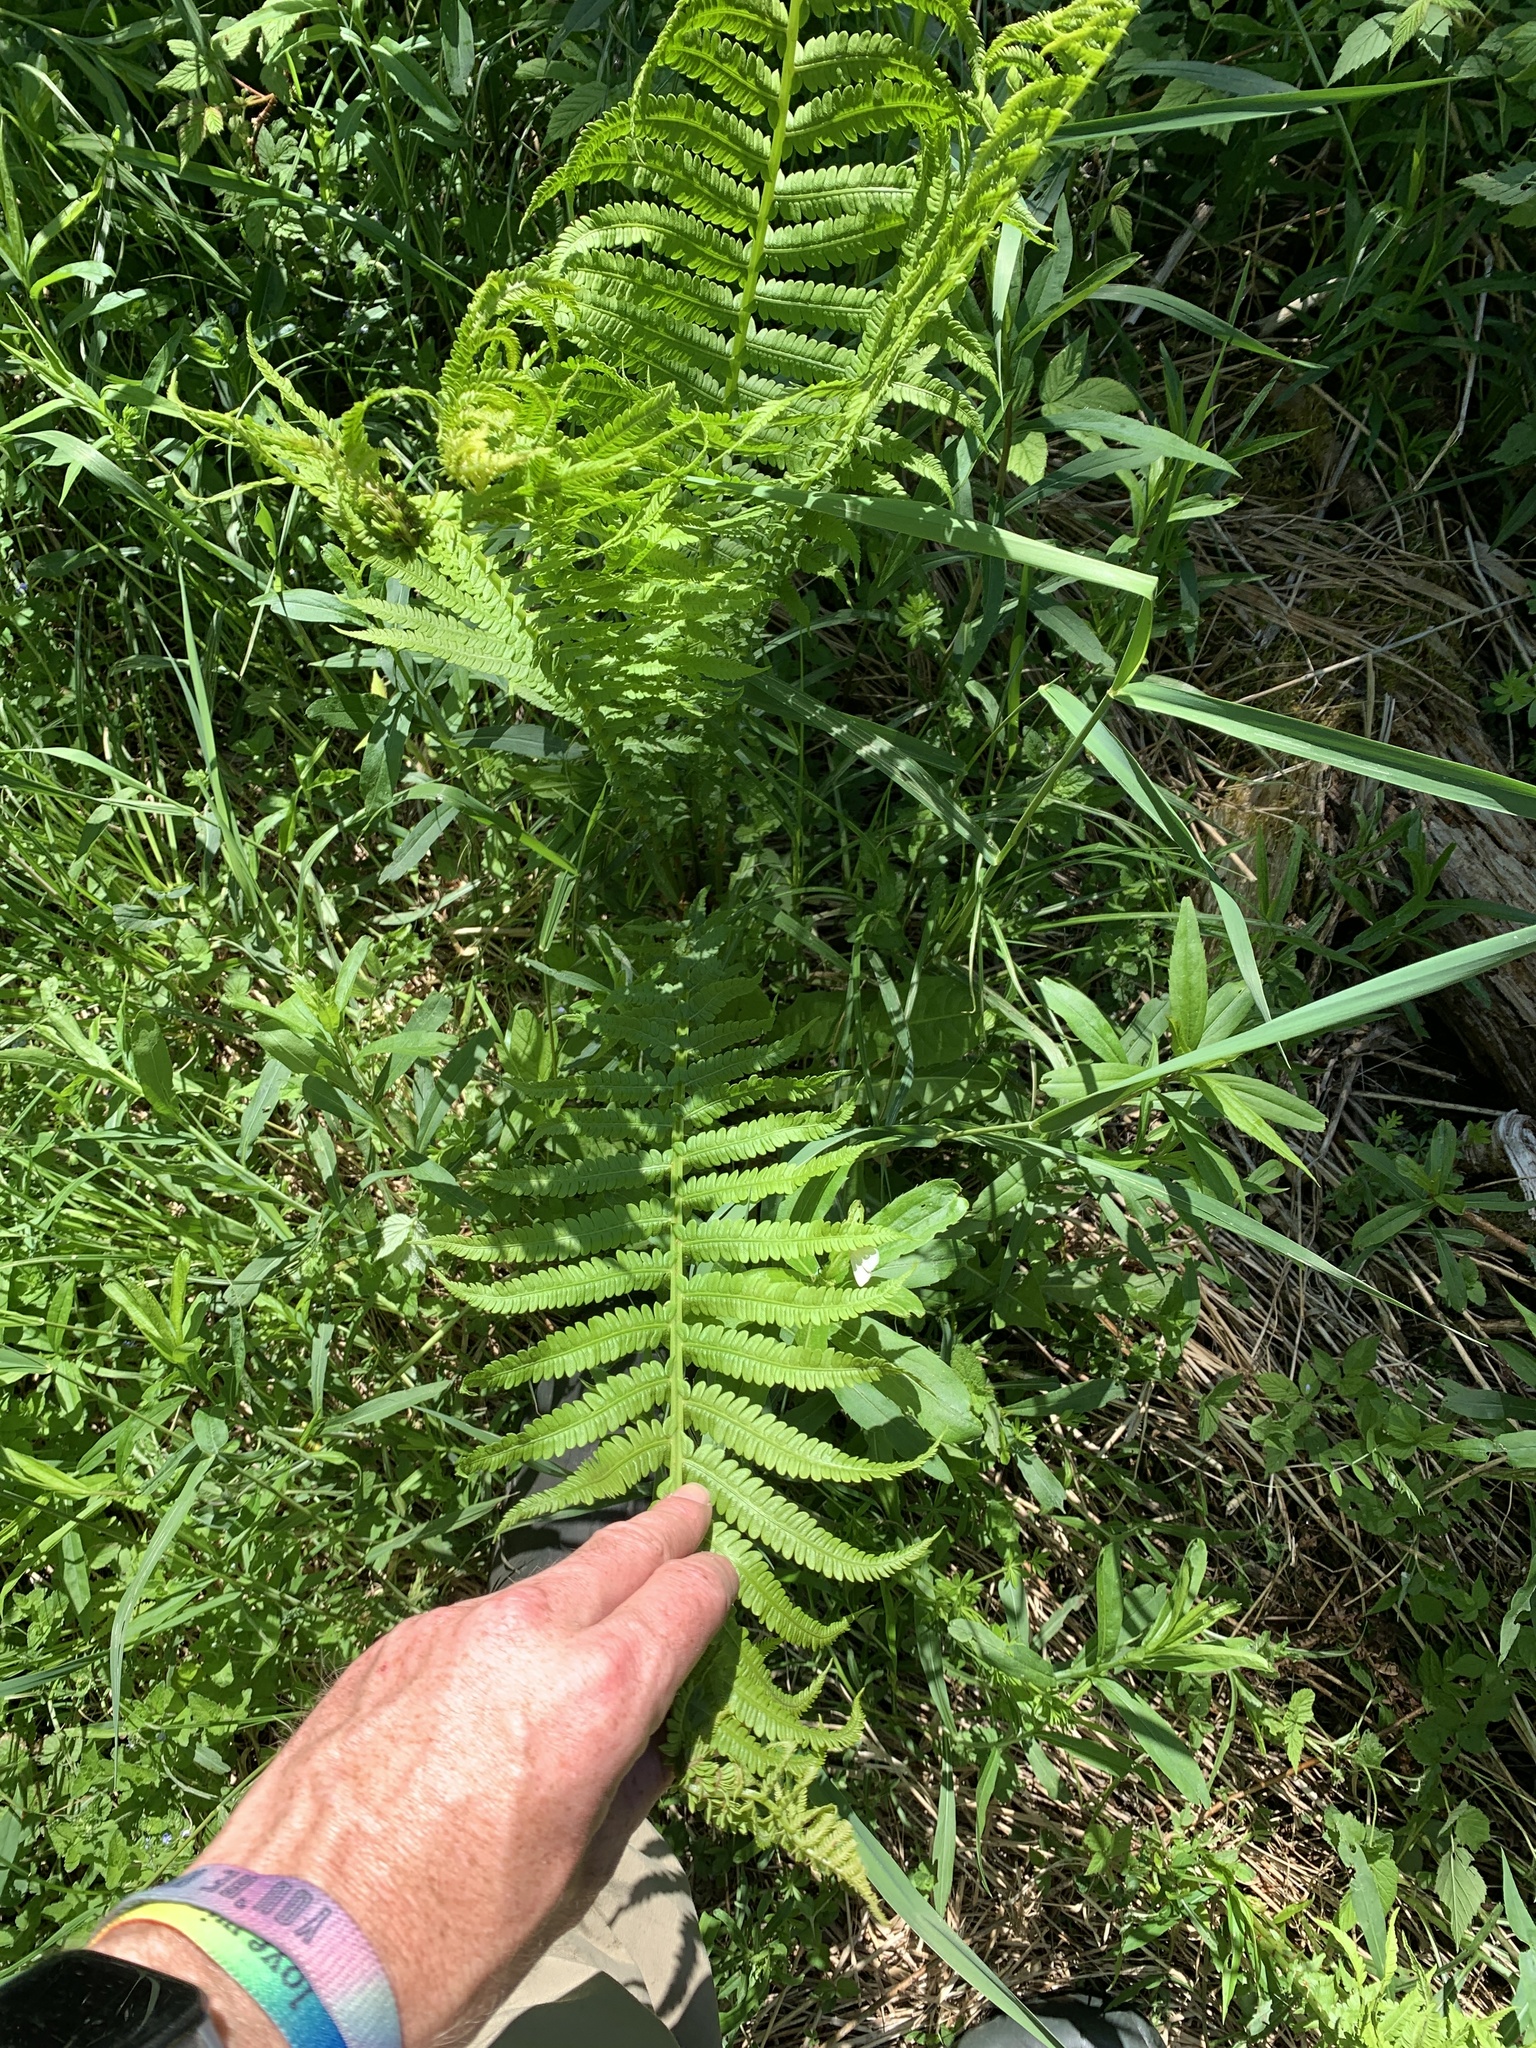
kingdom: Plantae
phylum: Tracheophyta
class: Polypodiopsida
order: Polypodiales
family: Onocleaceae
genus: Matteuccia
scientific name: Matteuccia struthiopteris
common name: Ostrich fern
